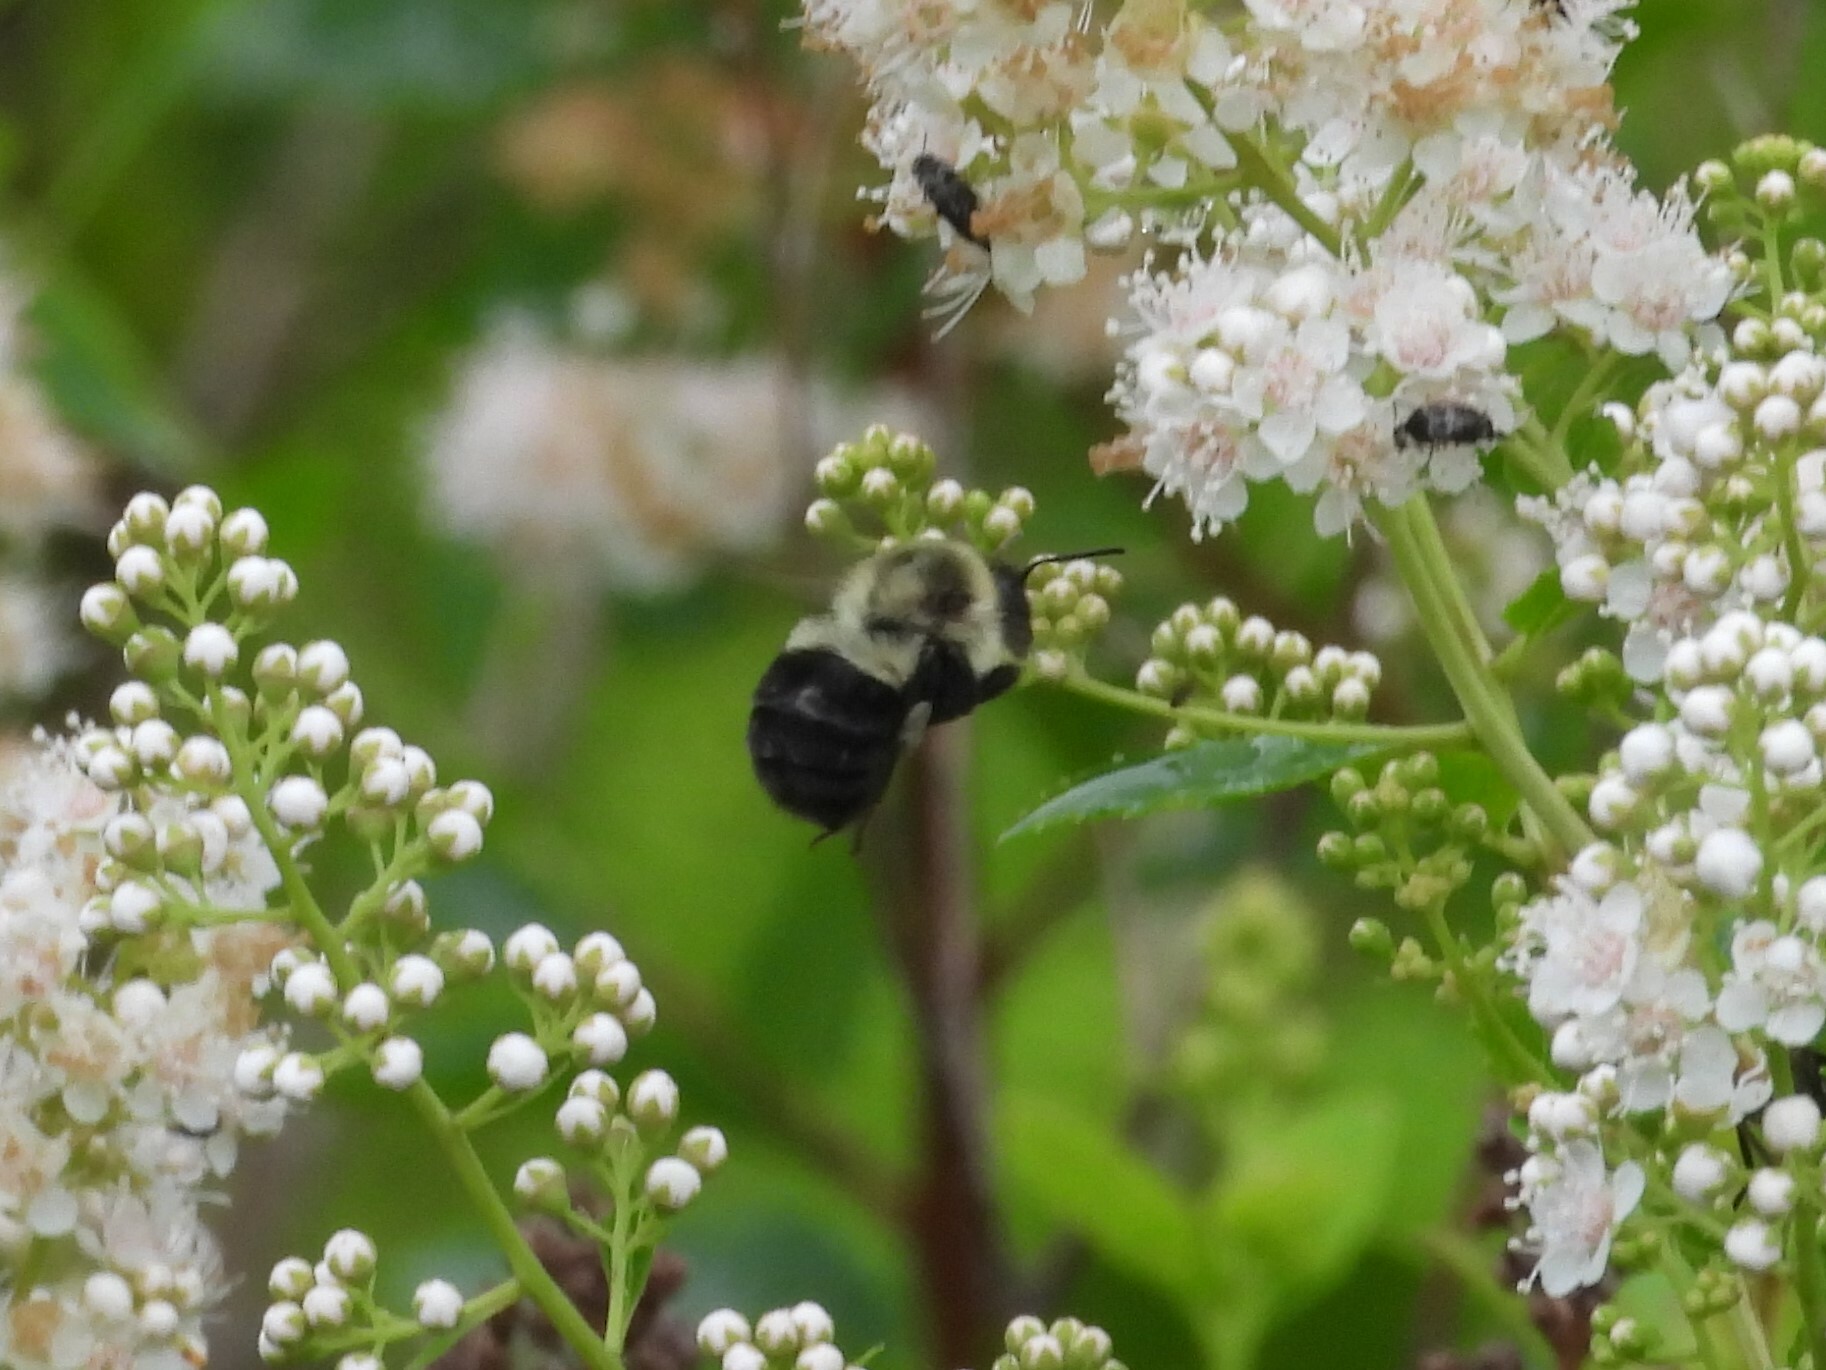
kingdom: Animalia
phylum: Arthropoda
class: Insecta
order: Hymenoptera
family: Apidae
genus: Bombus
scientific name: Bombus impatiens
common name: Common eastern bumble bee
